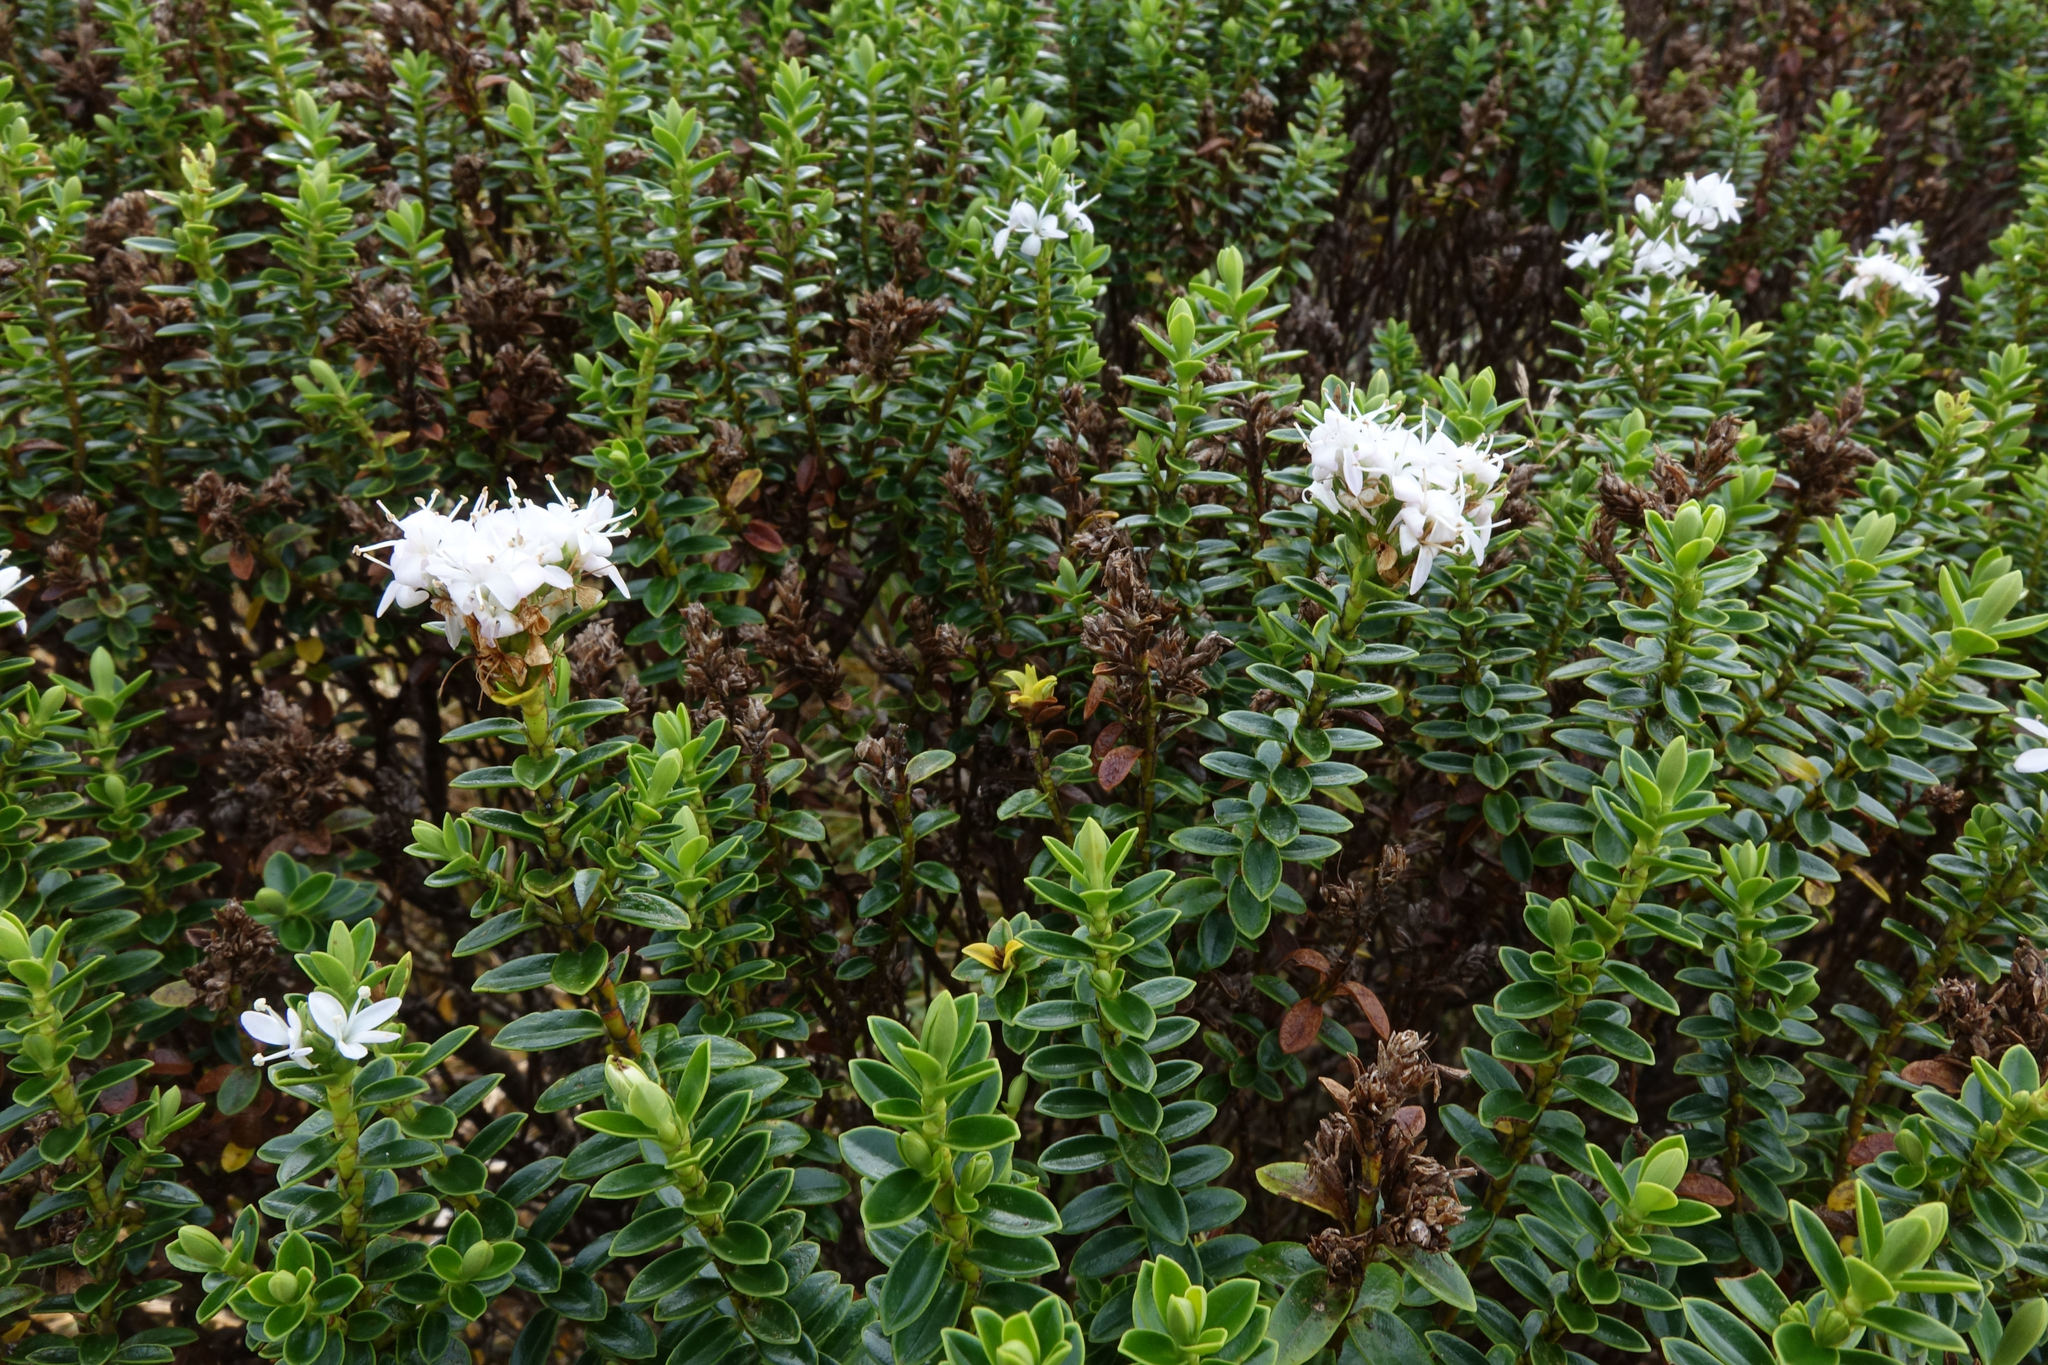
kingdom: Plantae
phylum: Tracheophyta
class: Magnoliopsida
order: Lamiales
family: Plantaginaceae
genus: Veronica
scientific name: Veronica odora
